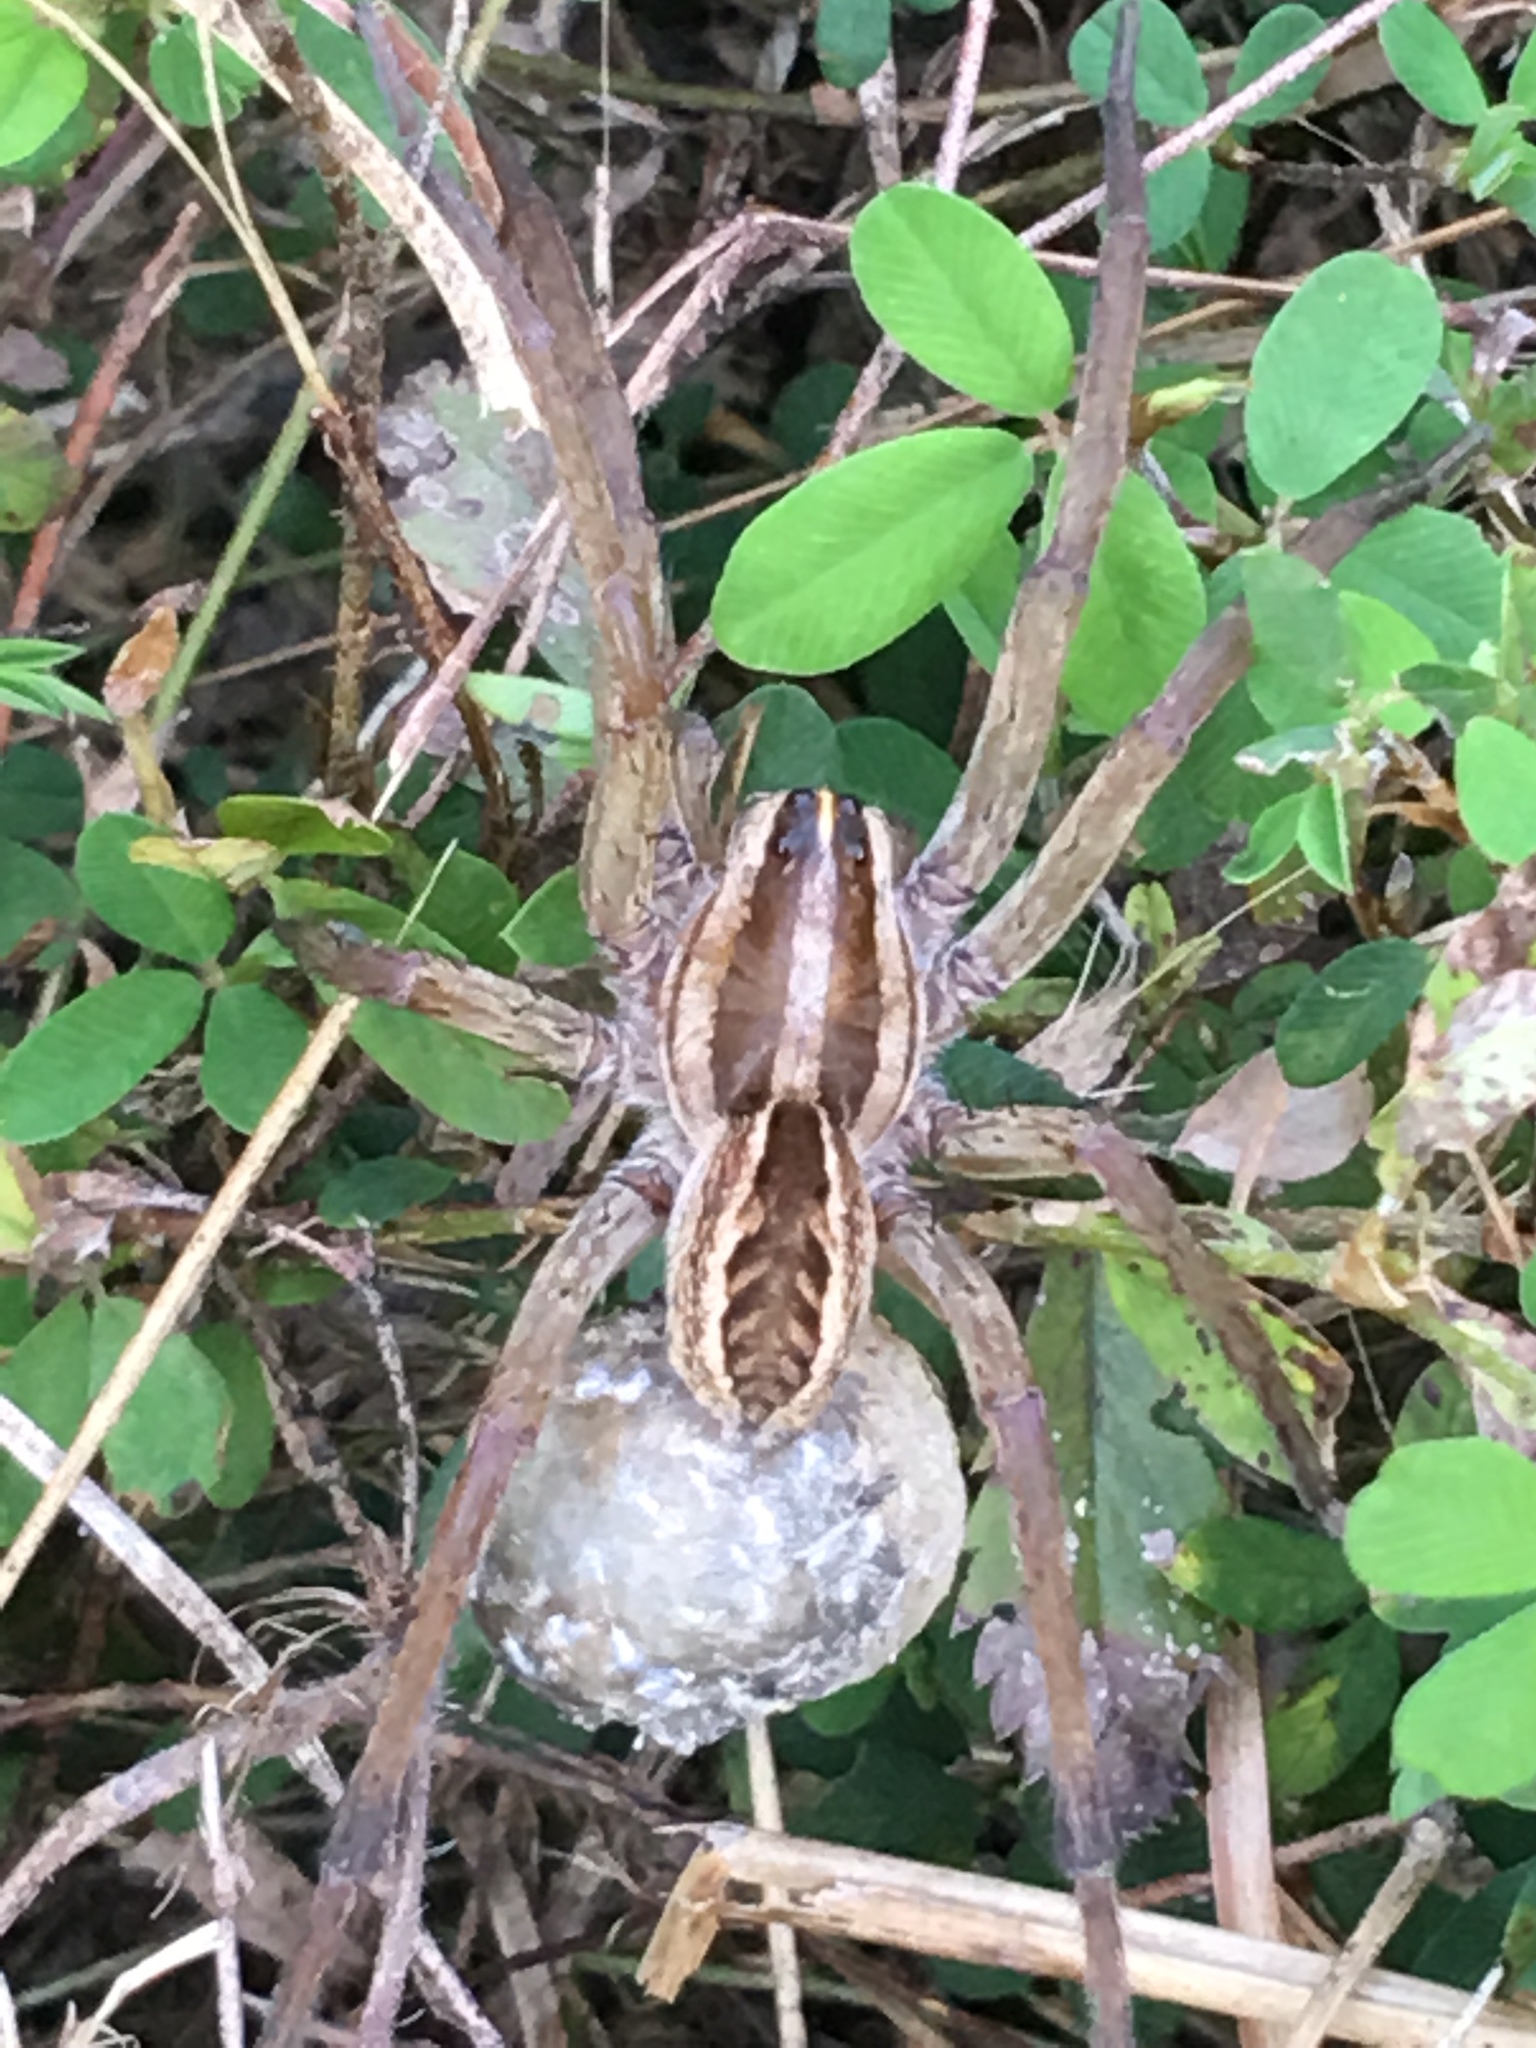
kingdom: Animalia
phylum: Arthropoda
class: Arachnida
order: Araneae
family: Lycosidae
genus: Rabidosa
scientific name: Rabidosa rabida
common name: Rabid wolf spider
